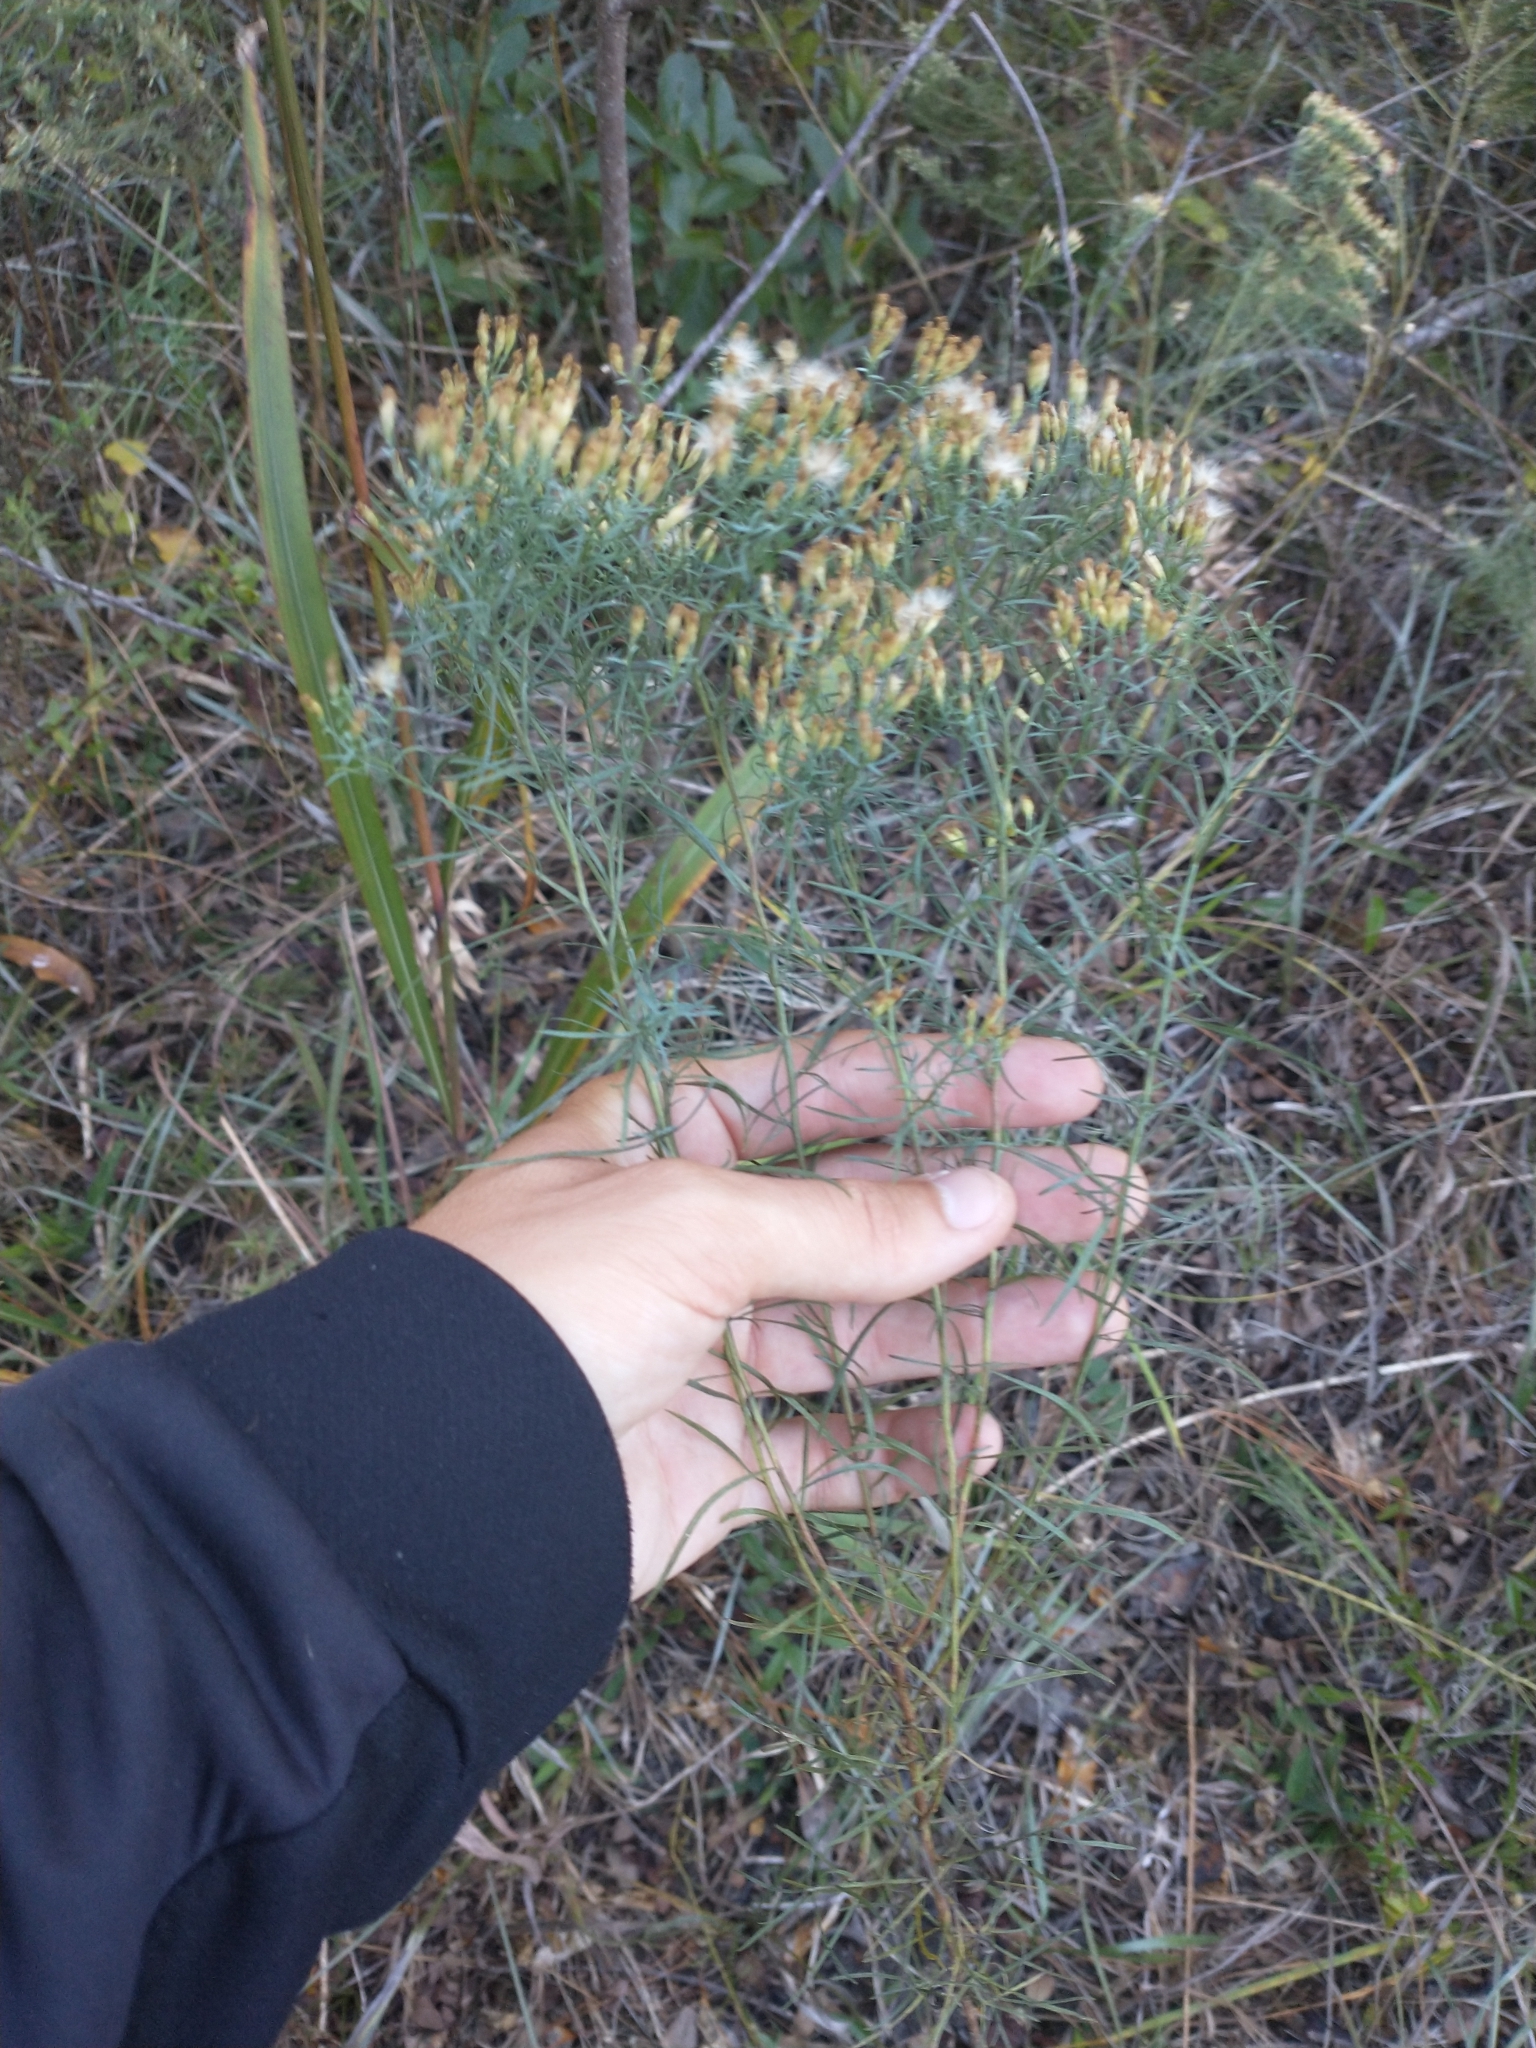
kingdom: Plantae
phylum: Tracheophyta
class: Magnoliopsida
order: Asterales
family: Asteraceae
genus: Euthamia
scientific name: Euthamia caroliniana
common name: Coastal plain goldentop
